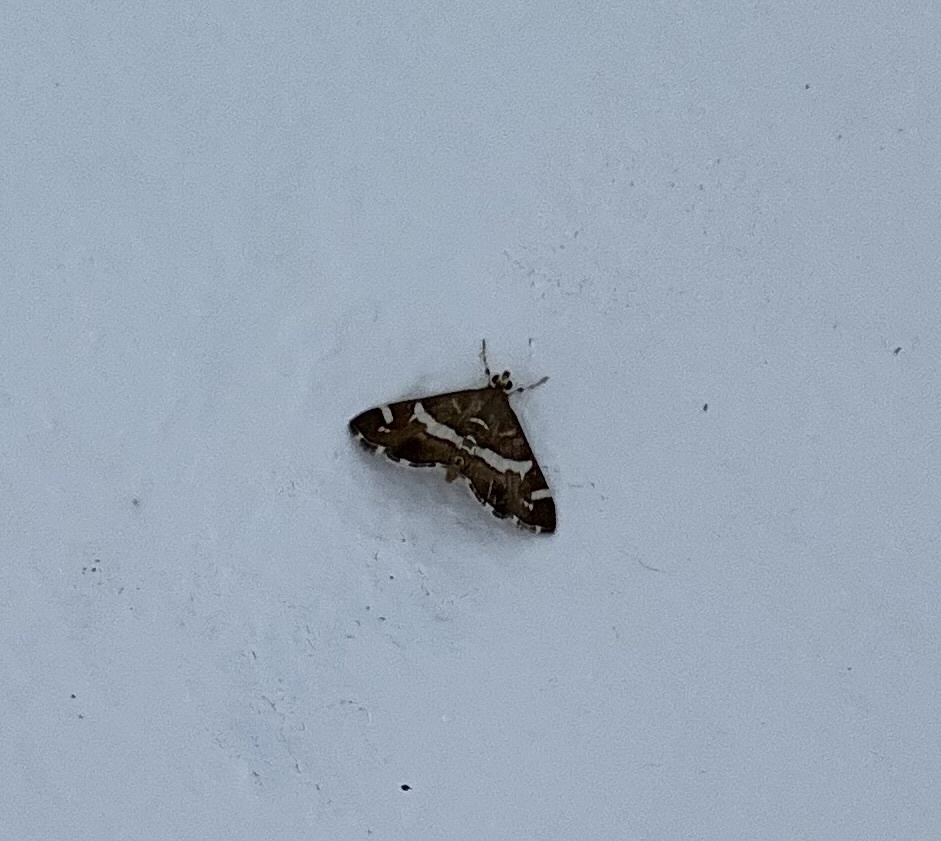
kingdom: Animalia
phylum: Arthropoda
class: Insecta
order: Lepidoptera
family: Crambidae
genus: Spoladea
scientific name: Spoladea recurvalis
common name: Beet webworm moth
